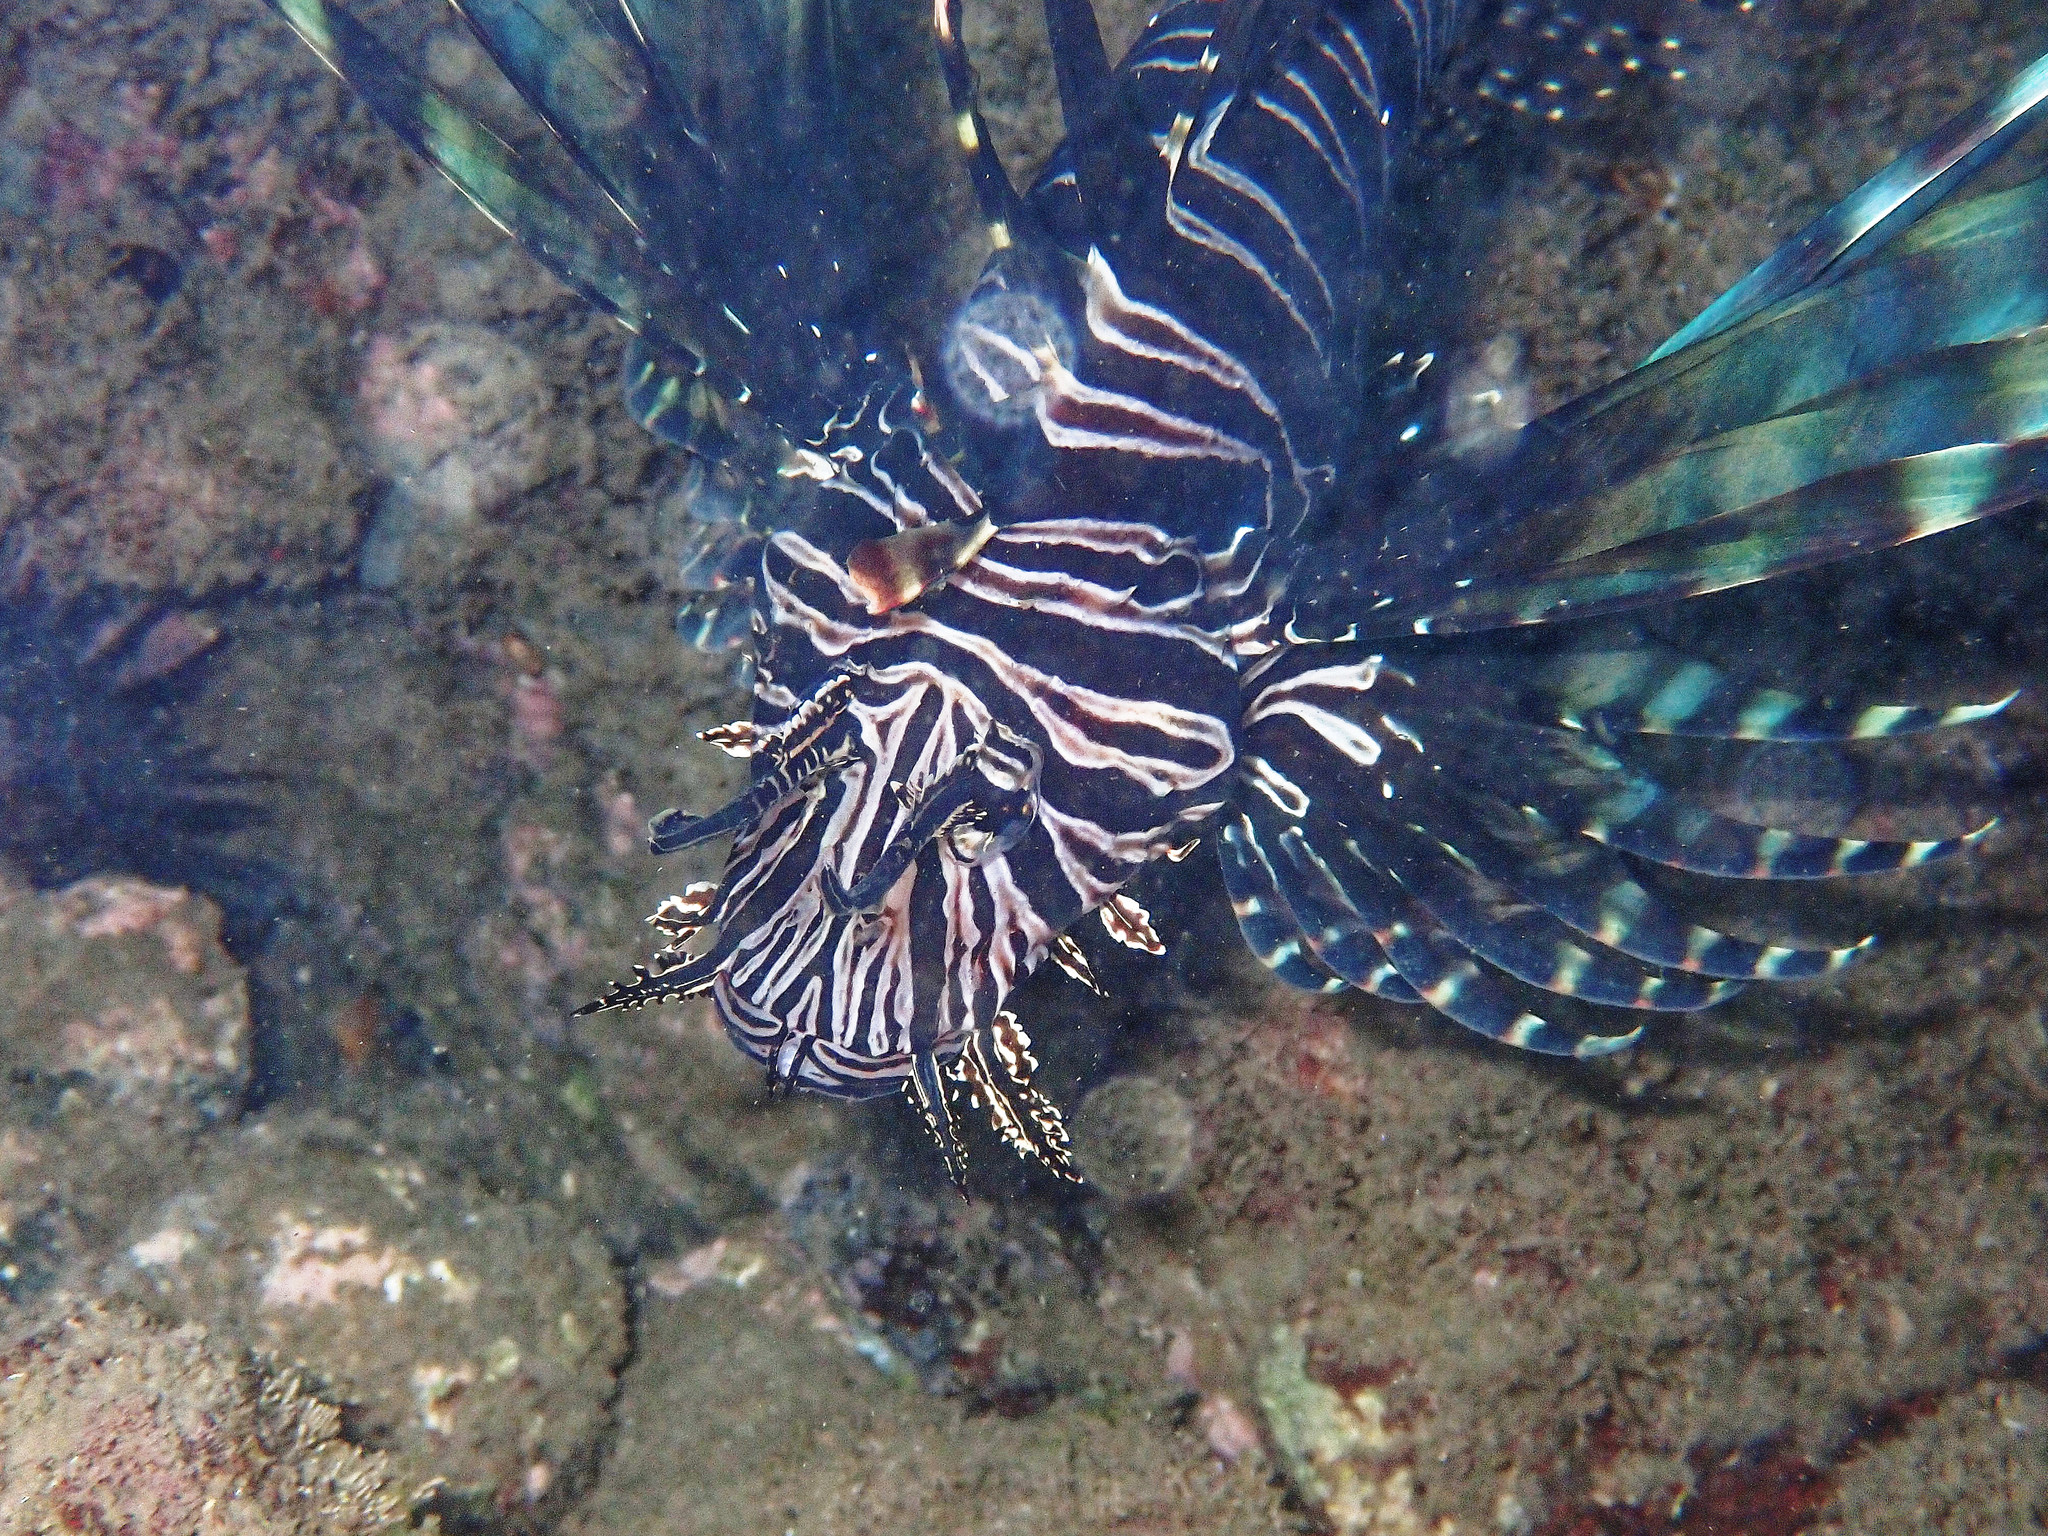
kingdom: Animalia
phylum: Chordata
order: Scorpaeniformes
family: Scorpaenidae
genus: Pterois
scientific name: Pterois volitans
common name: Lionfish
